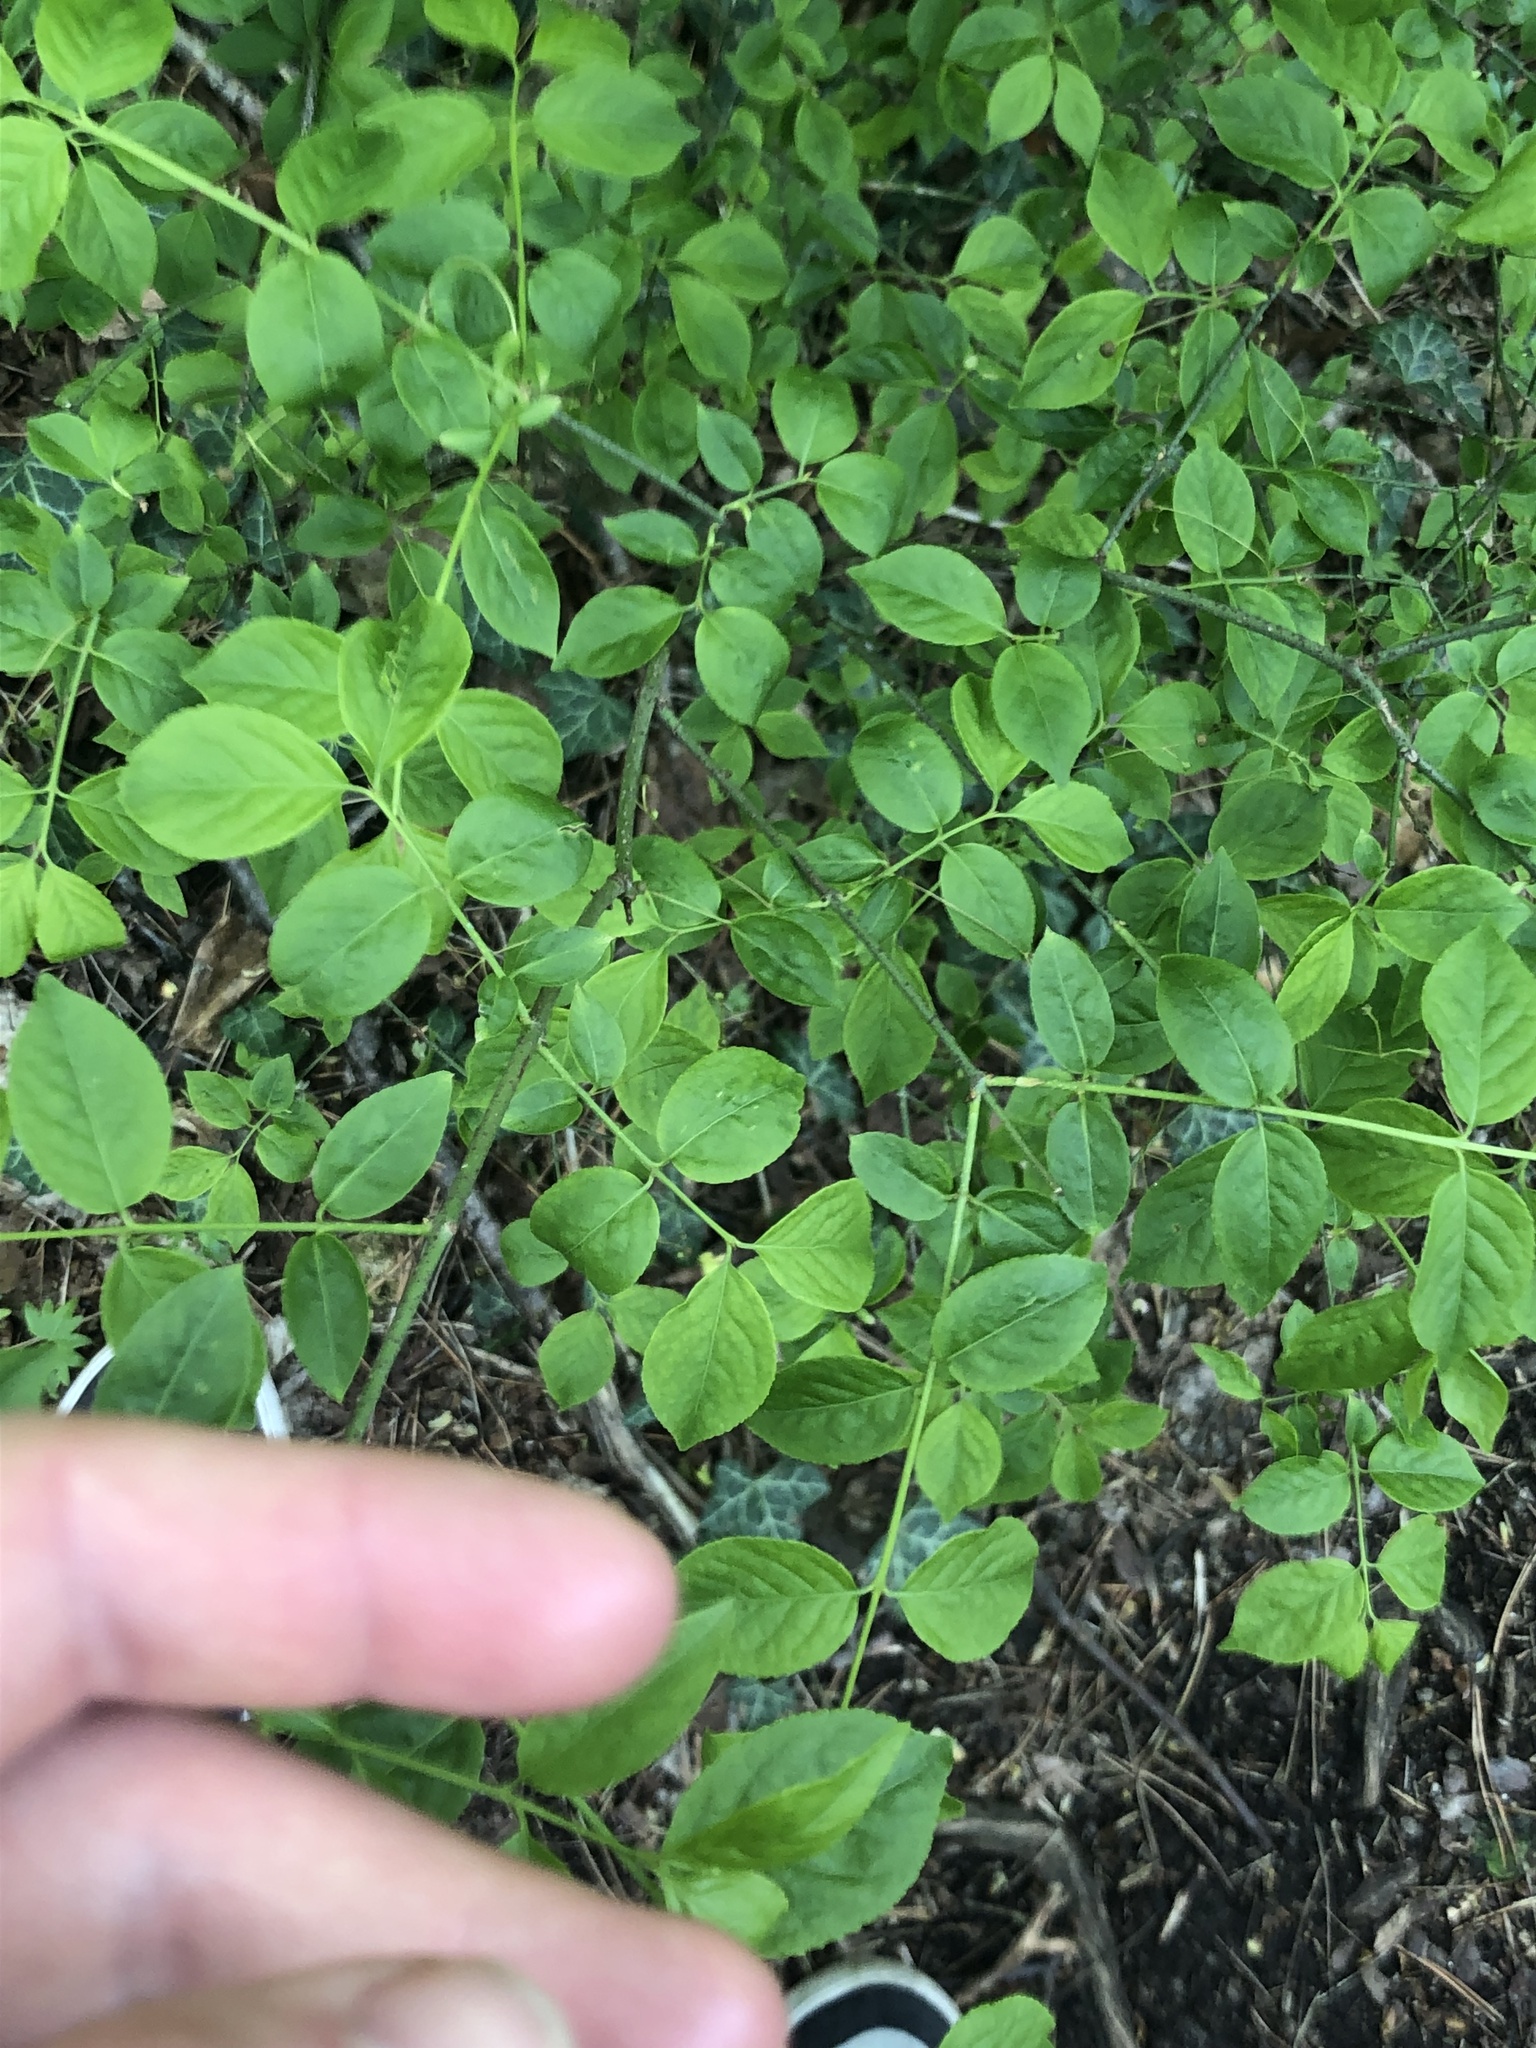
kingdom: Plantae
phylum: Tracheophyta
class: Magnoliopsida
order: Celastrales
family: Celastraceae
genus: Euonymus
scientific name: Euonymus verrucosus
